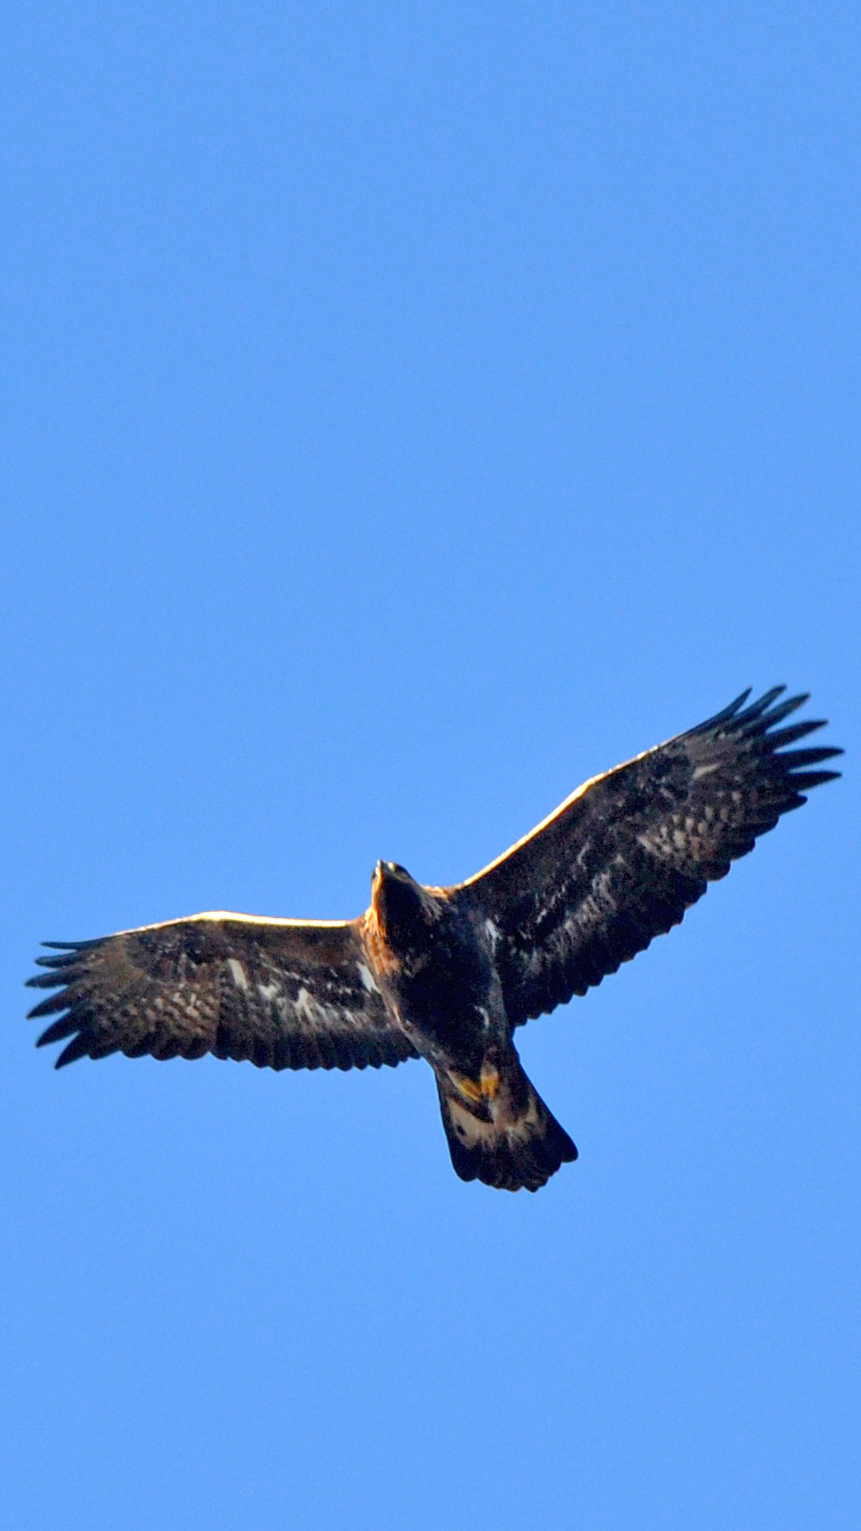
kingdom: Animalia
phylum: Chordata
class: Aves
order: Accipitriformes
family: Accipitridae
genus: Aquila
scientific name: Aquila chrysaetos
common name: Golden eagle
